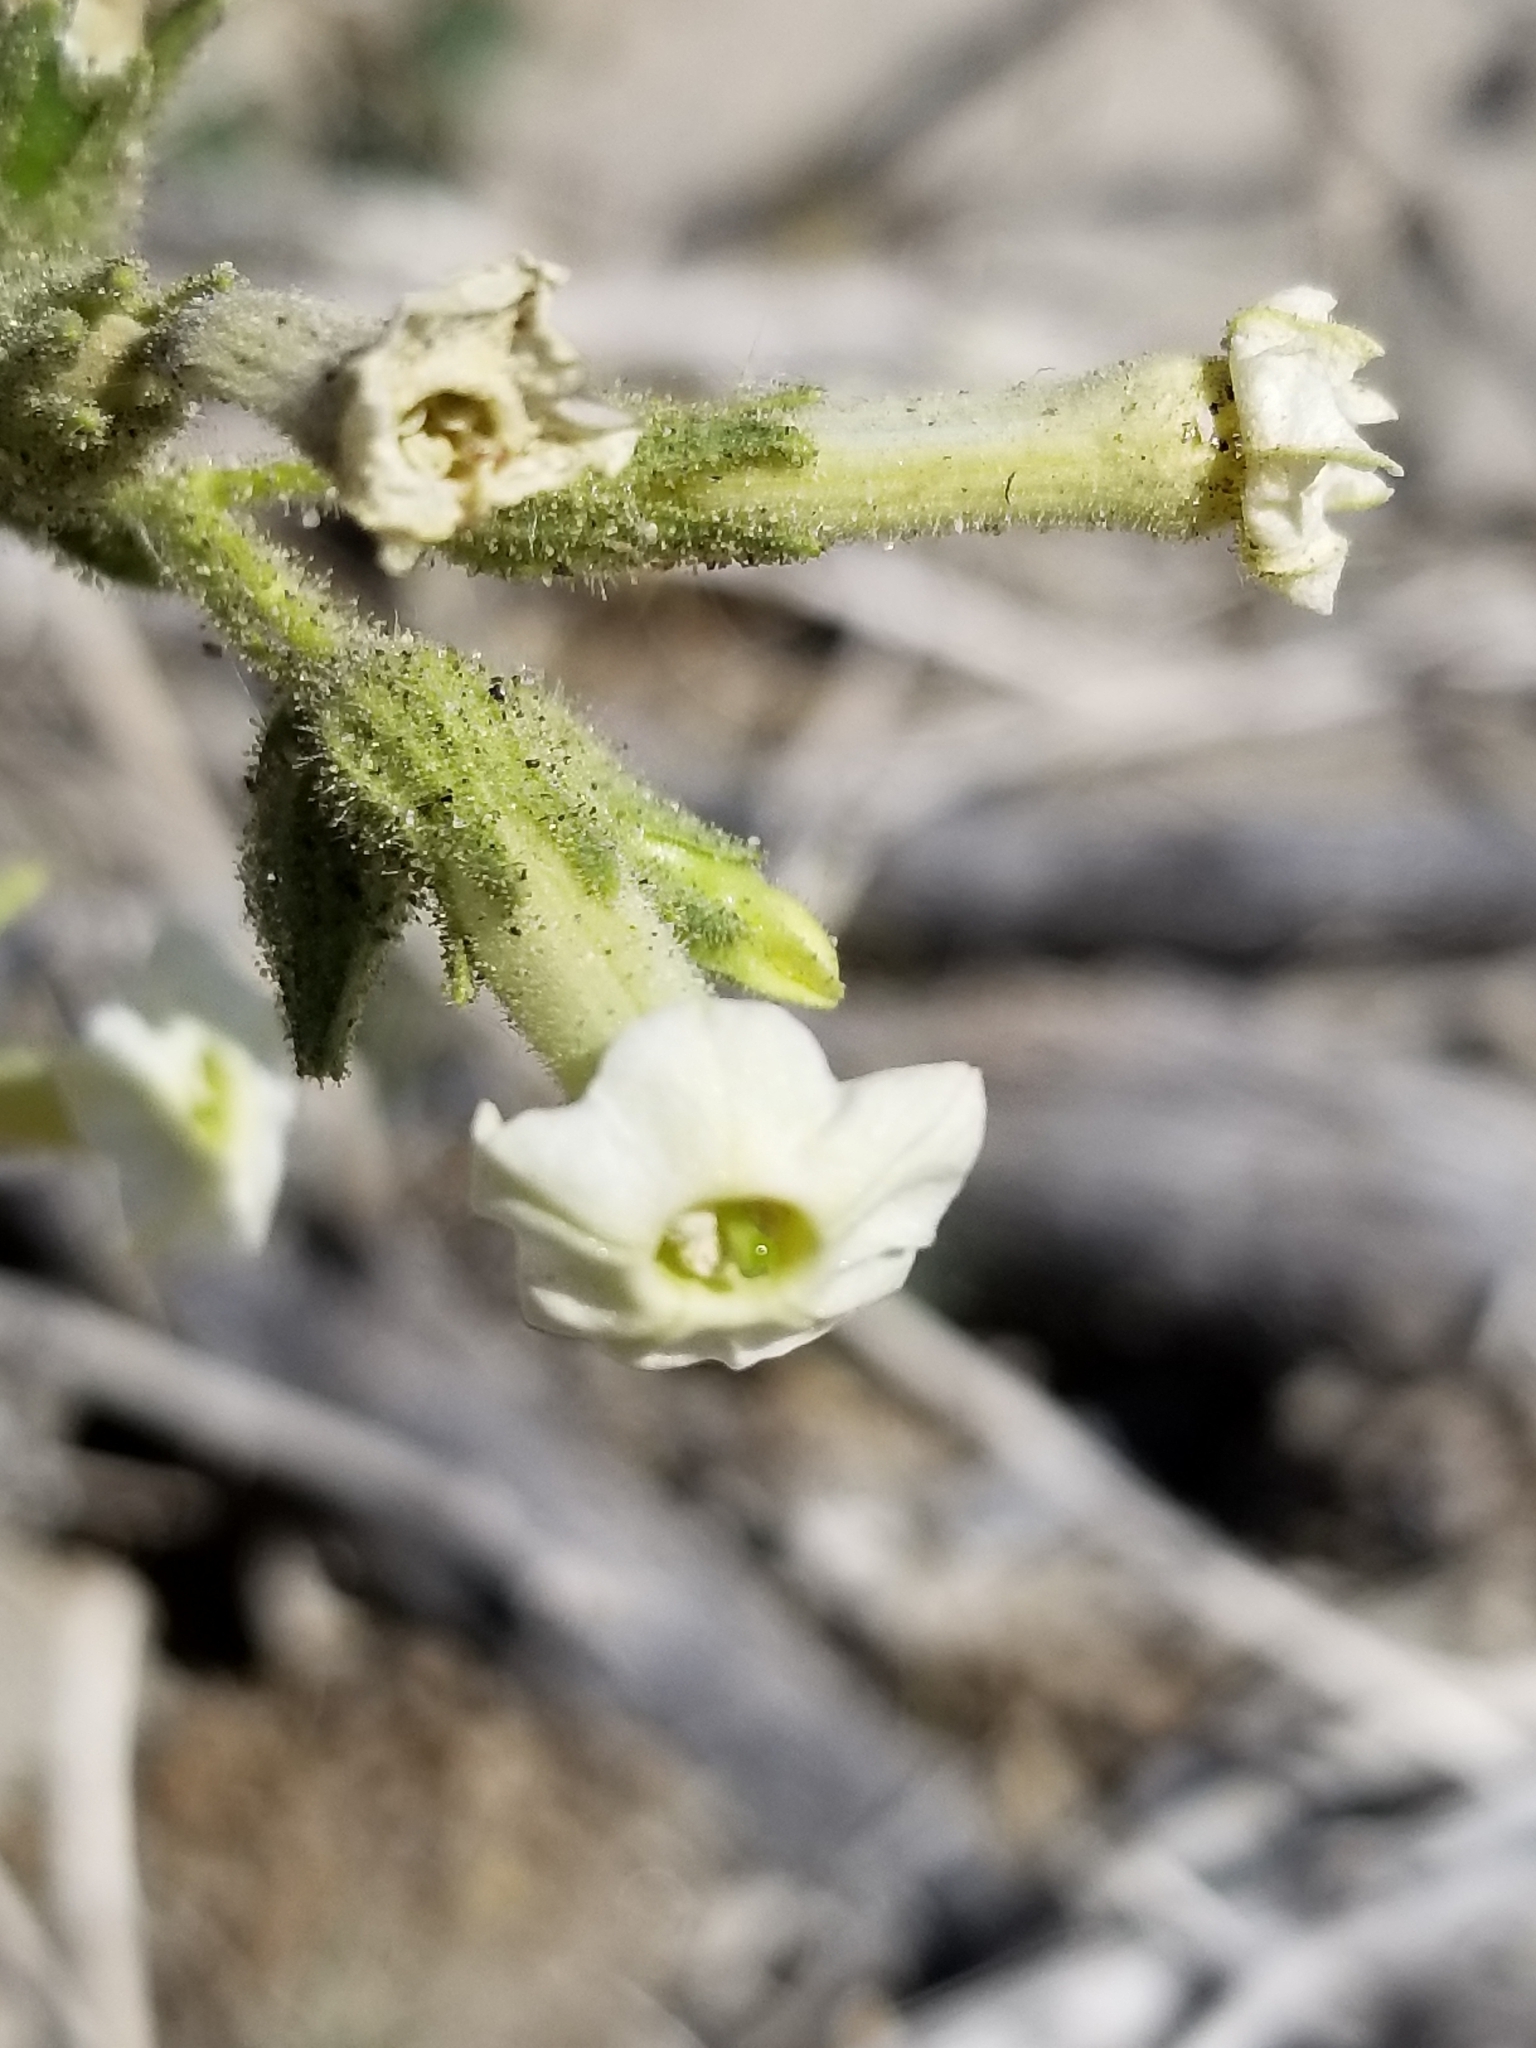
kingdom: Plantae
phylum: Tracheophyta
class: Magnoliopsida
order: Solanales
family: Solanaceae
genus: Nicotiana
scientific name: Nicotiana obtusifolia
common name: Desert tobacco
